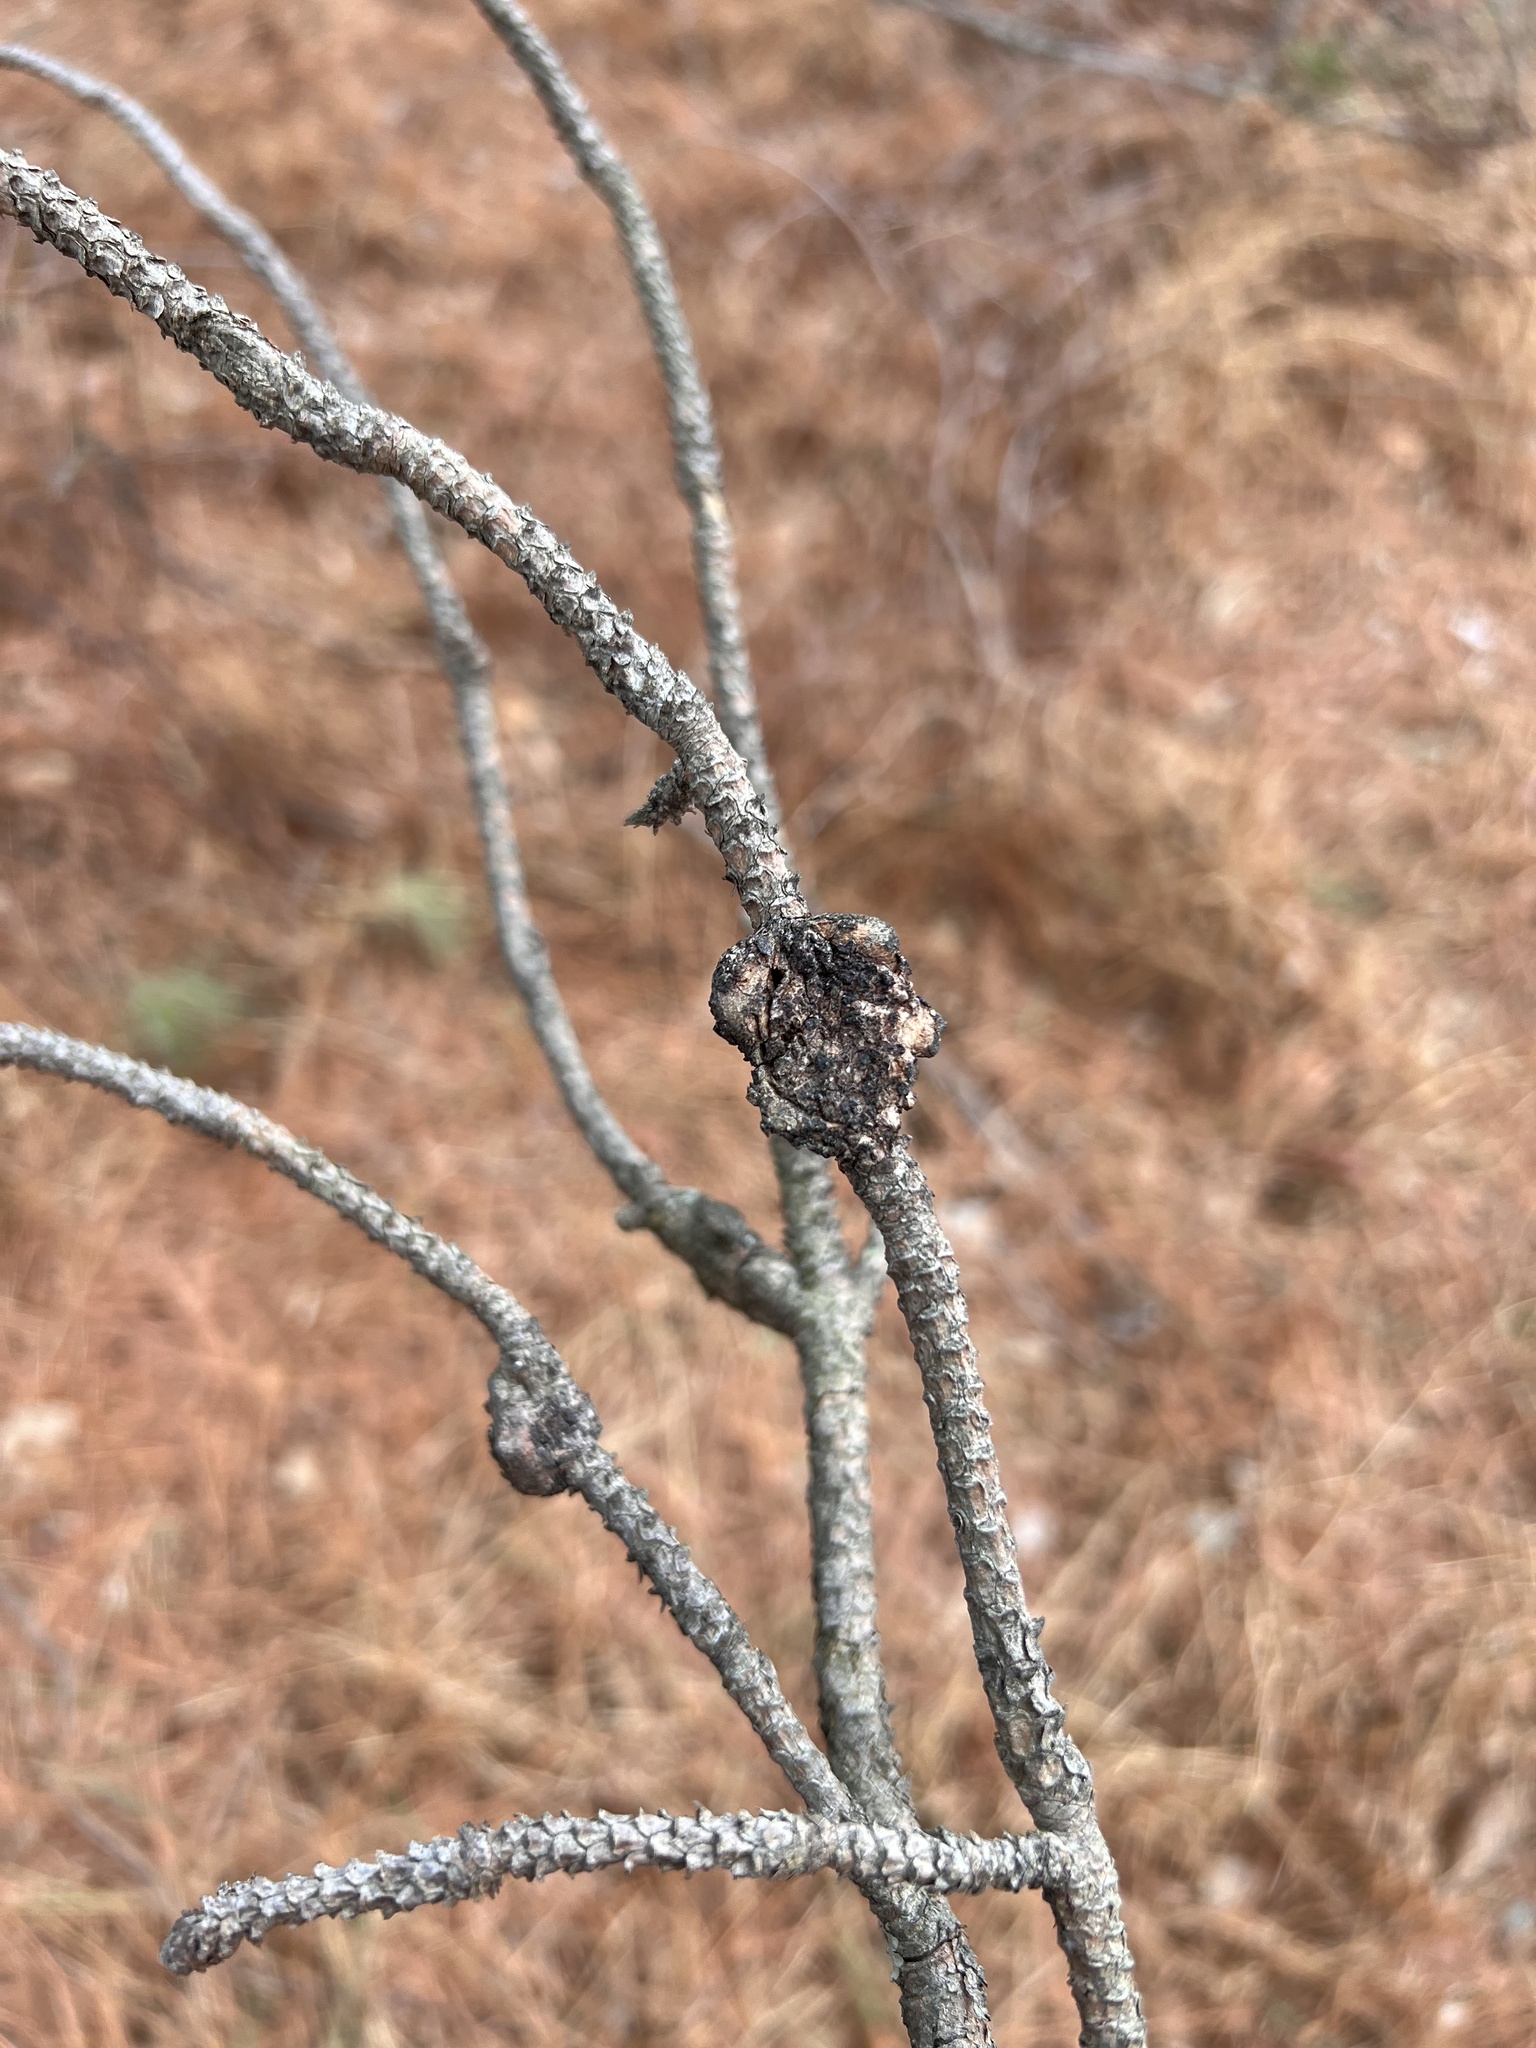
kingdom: Fungi
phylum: Basidiomycota
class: Pucciniomycetes
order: Pucciniales
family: Cronartiaceae
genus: Cronartium
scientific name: Cronartium quercuum
